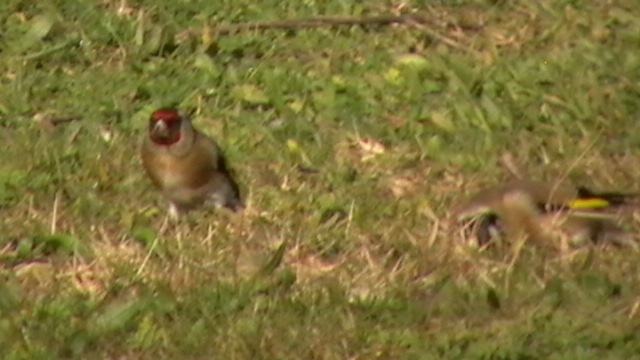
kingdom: Animalia
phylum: Chordata
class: Aves
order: Passeriformes
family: Fringillidae
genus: Carduelis
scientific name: Carduelis carduelis
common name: European goldfinch
